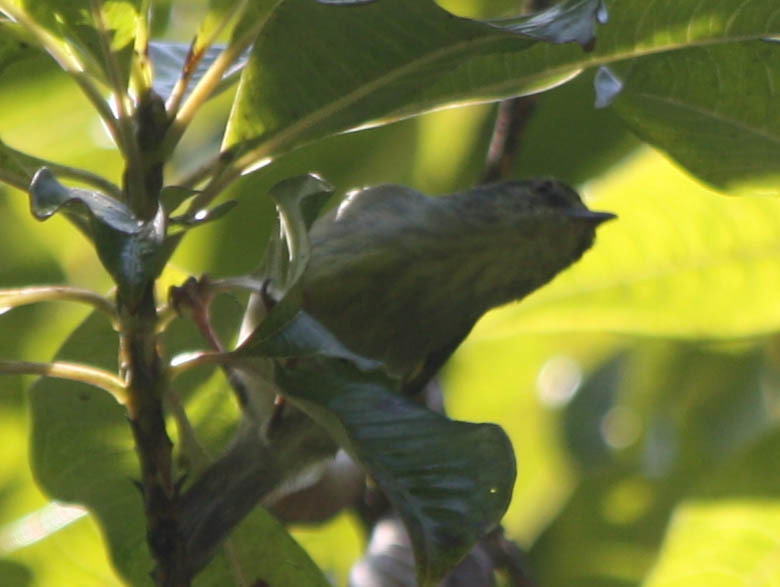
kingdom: Animalia
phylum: Chordata
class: Aves
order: Passeriformes
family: Cisticolidae
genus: Neomixis
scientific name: Neomixis striatigula
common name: Stripe-throated jery
